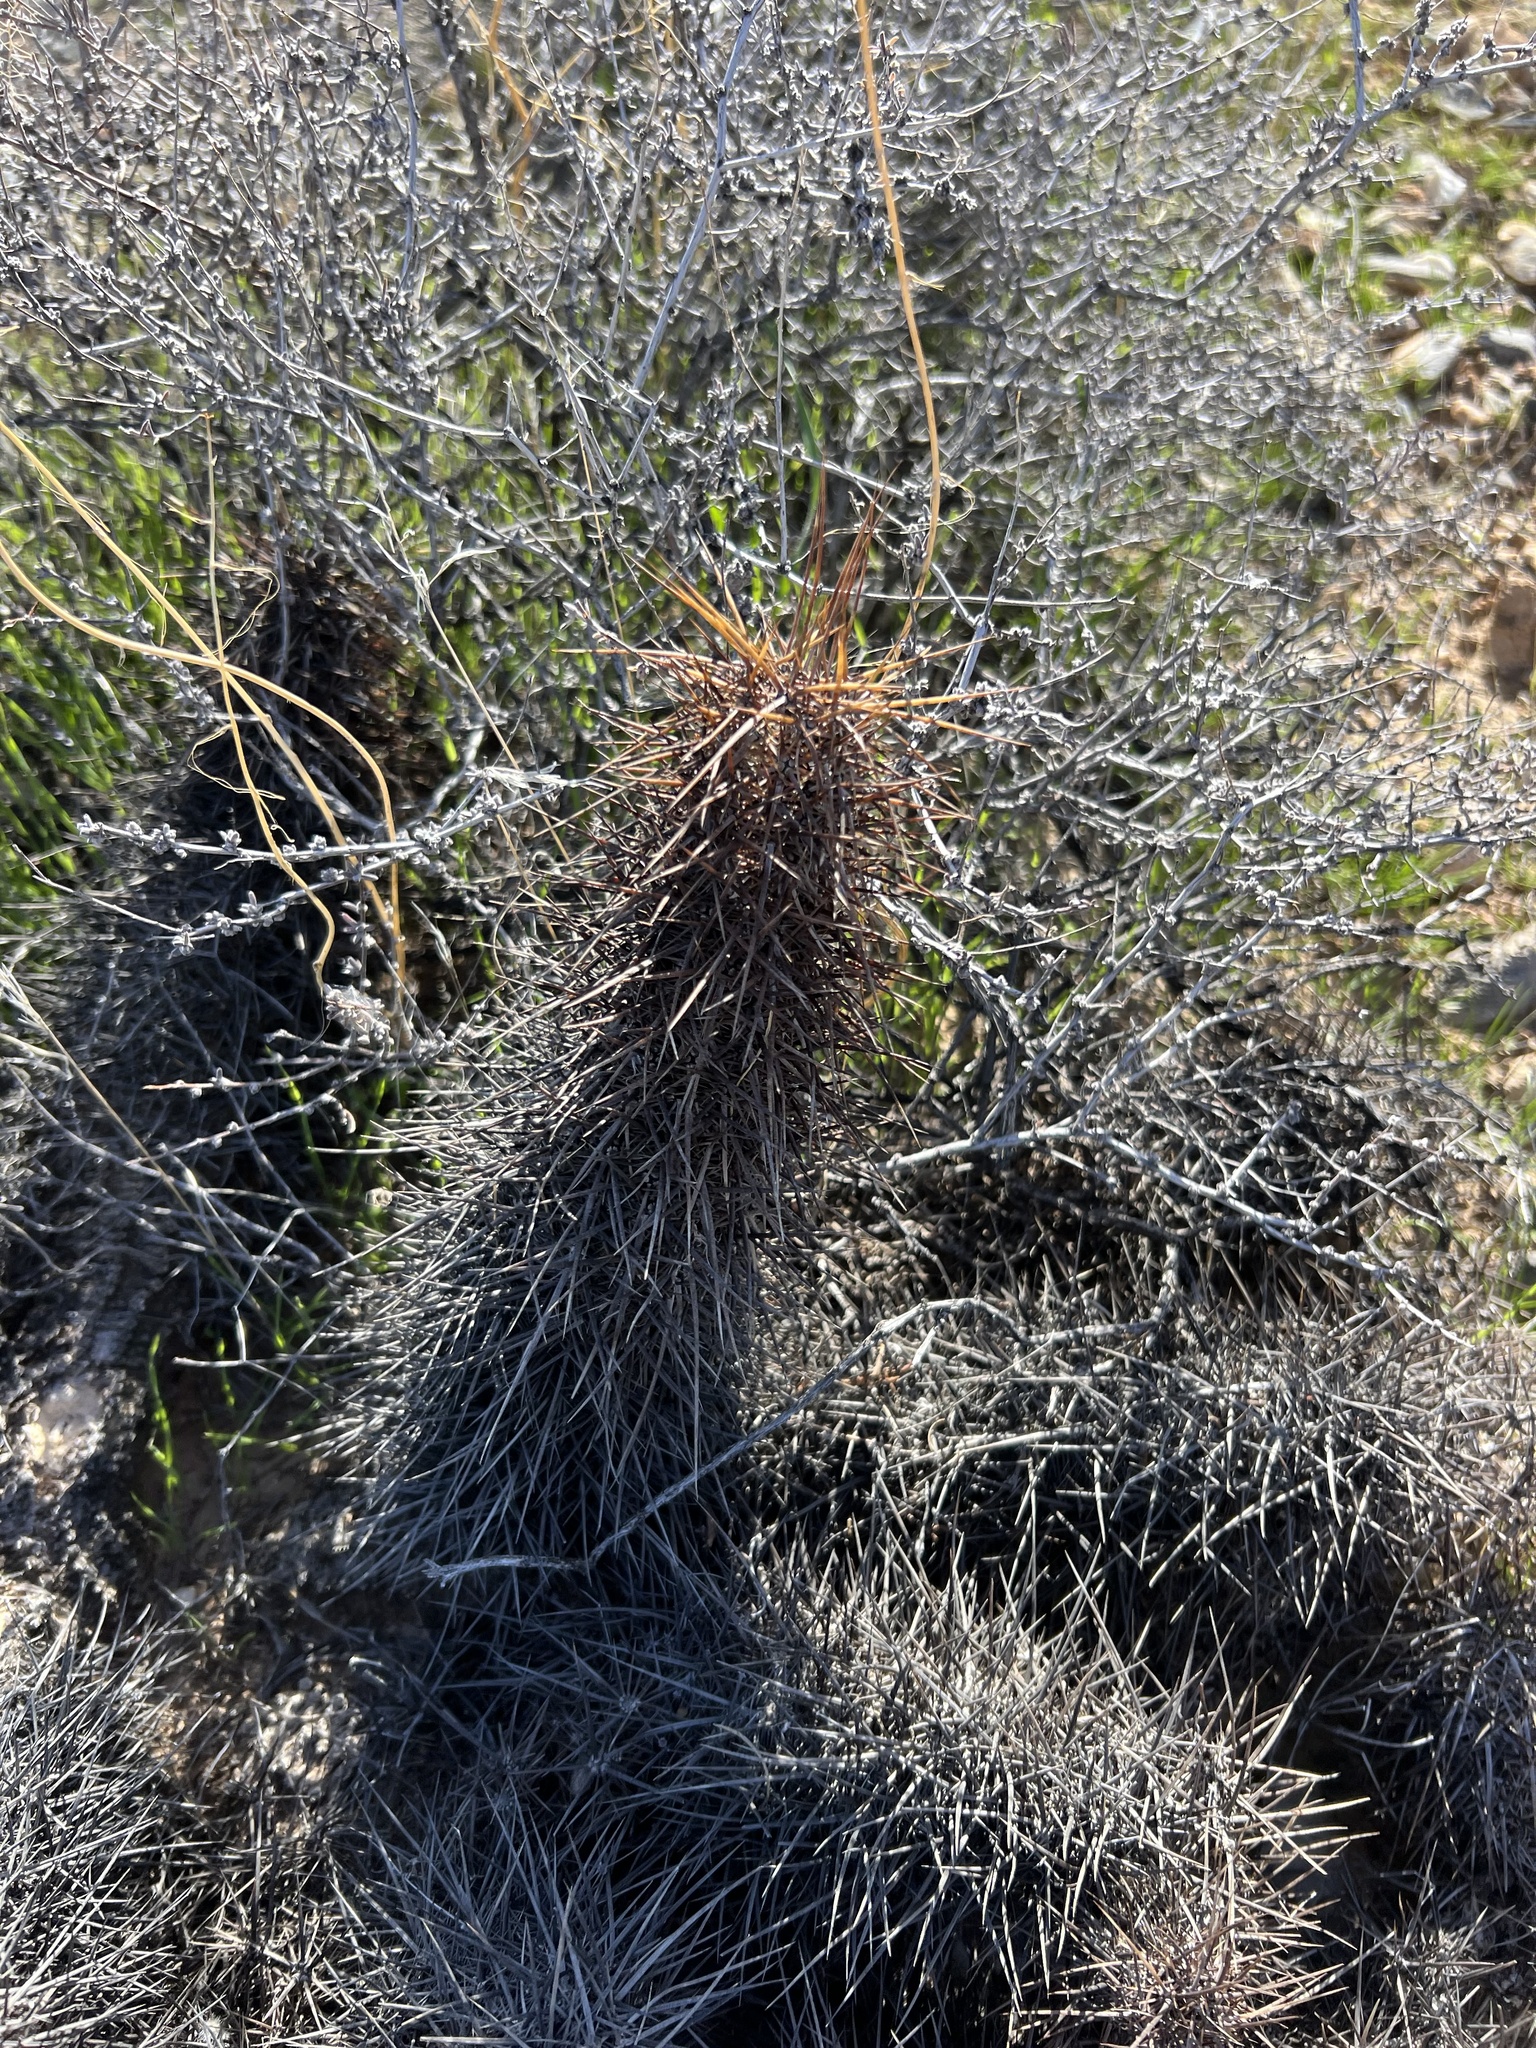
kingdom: Plantae
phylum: Tracheophyta
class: Magnoliopsida
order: Caryophyllales
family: Cactaceae
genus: Echinocereus
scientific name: Echinocereus engelmannii
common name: Engelmann's hedgehog cactus
